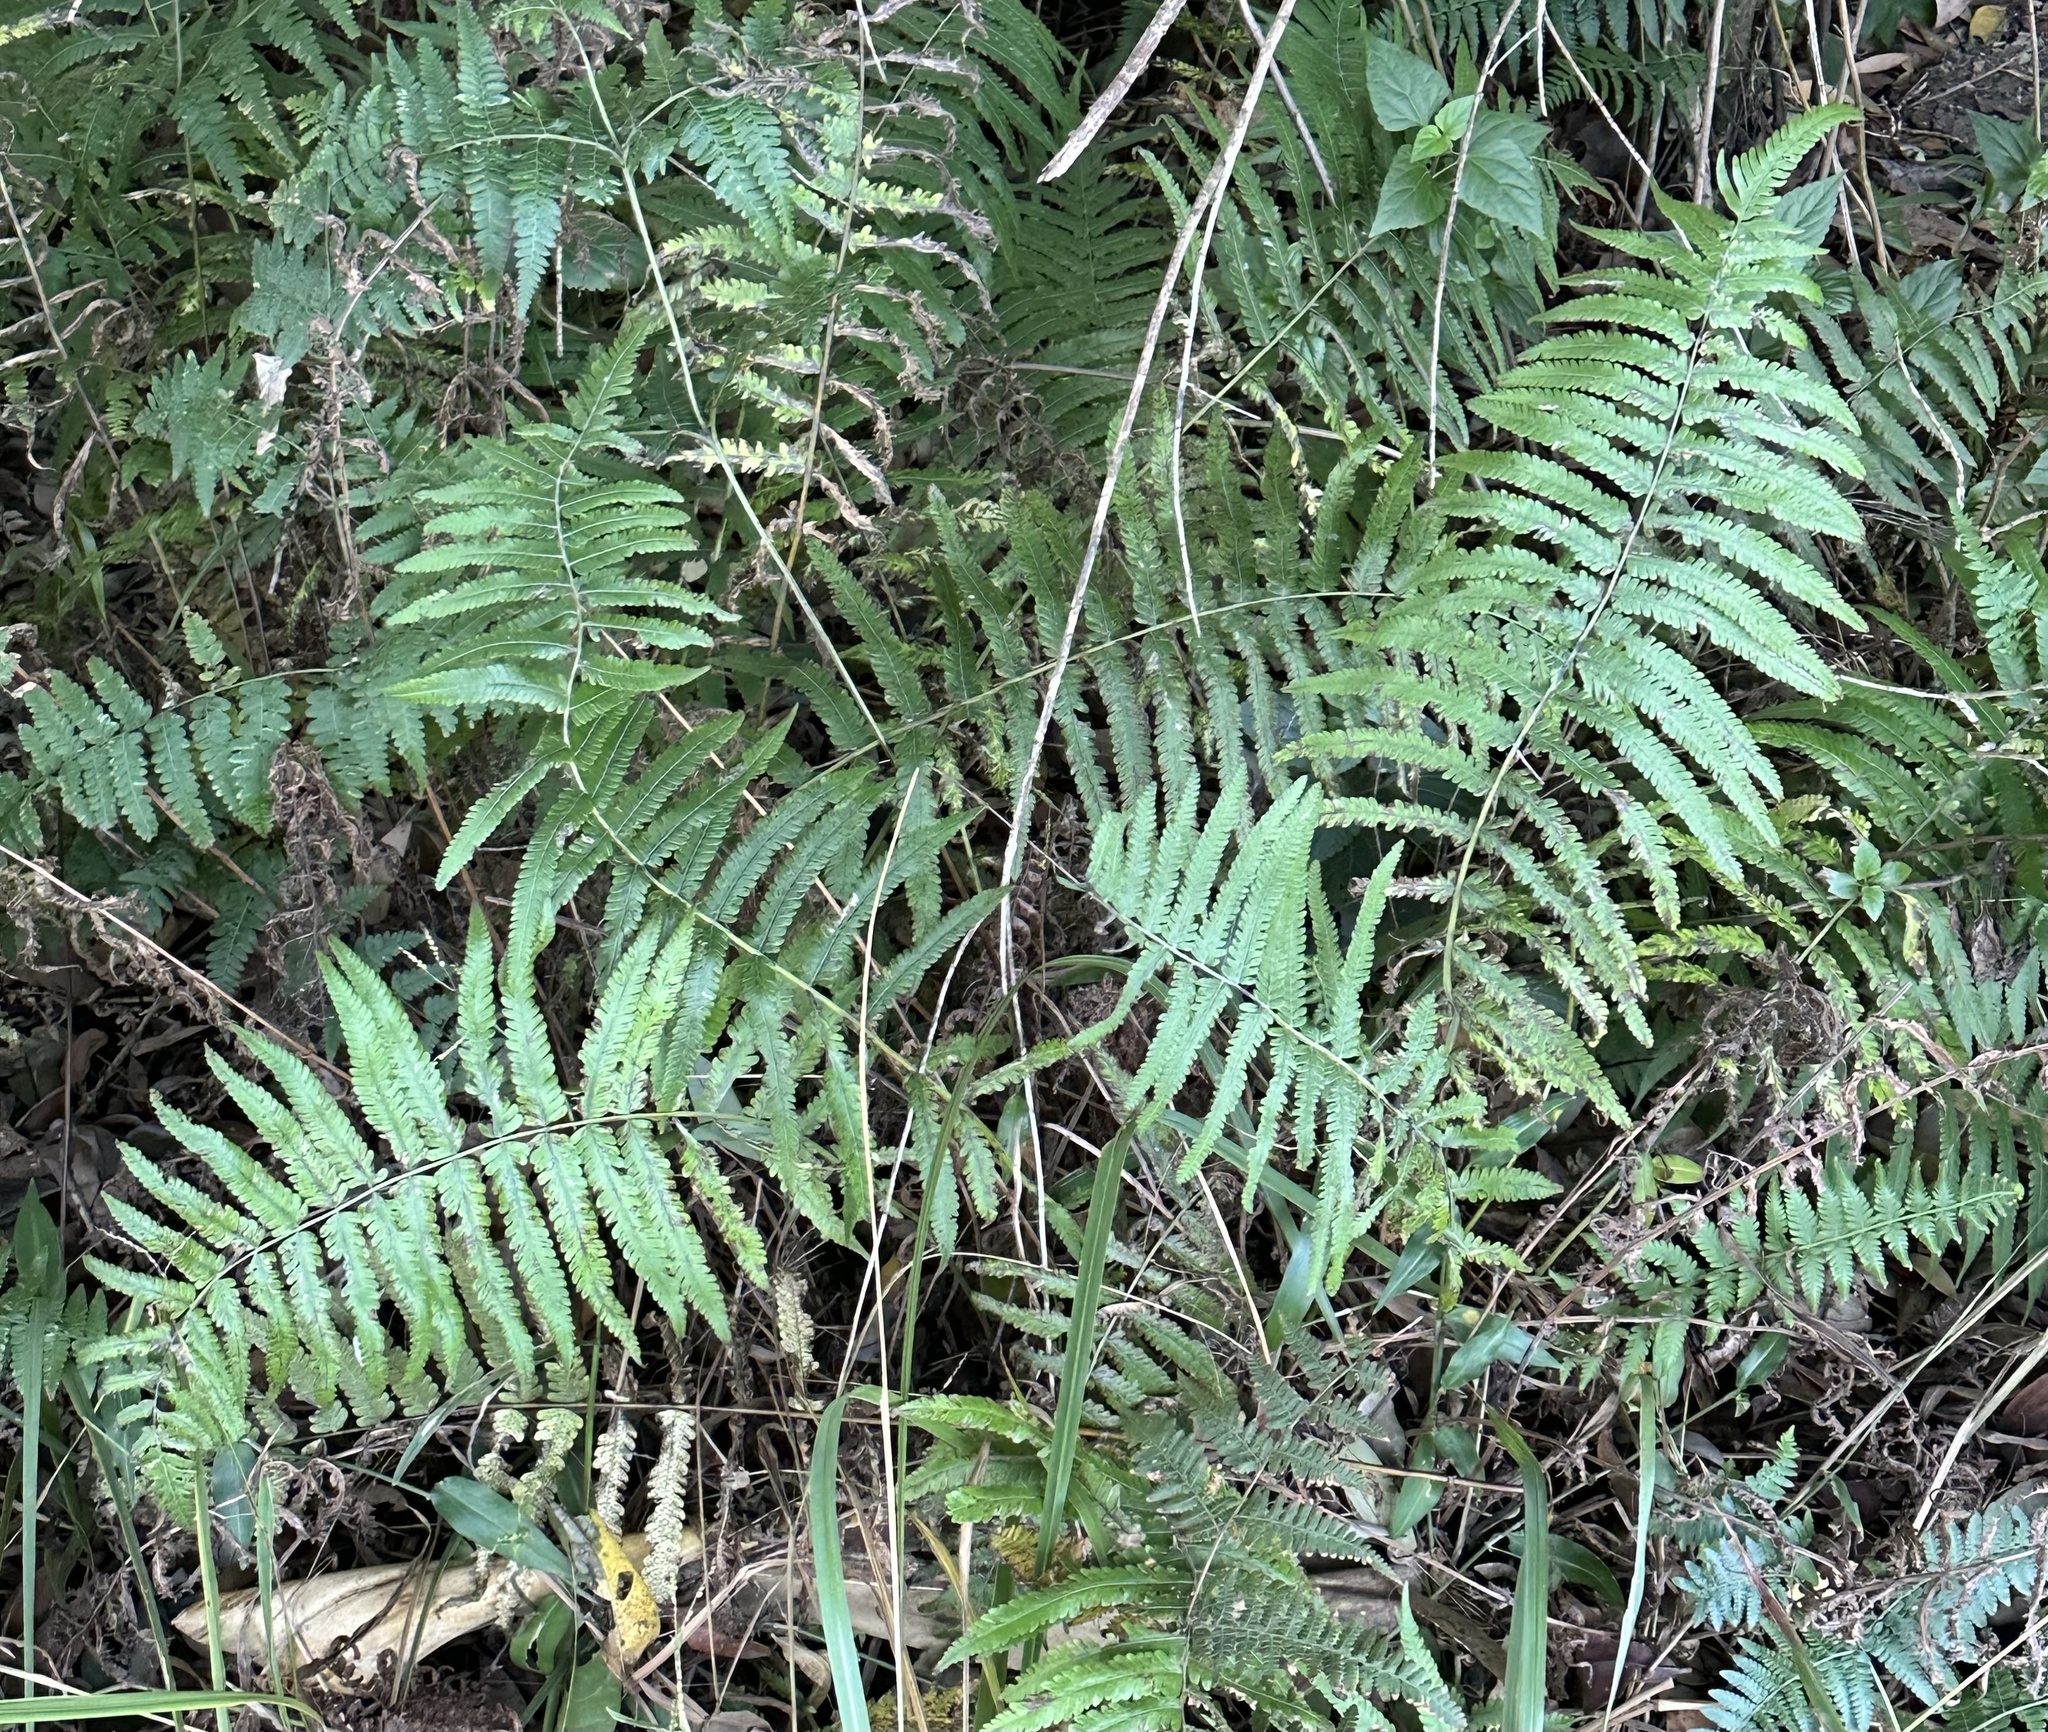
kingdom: Plantae
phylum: Tracheophyta
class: Polypodiopsida
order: Polypodiales
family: Thelypteridaceae
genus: Christella
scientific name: Christella dentata
